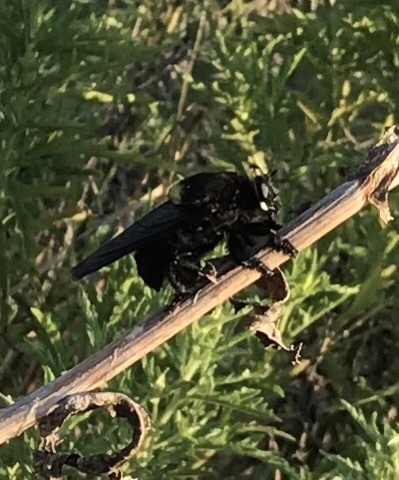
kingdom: Animalia
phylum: Arthropoda
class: Insecta
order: Diptera
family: Asilidae
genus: Mallophora
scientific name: Mallophora leschenaultii
